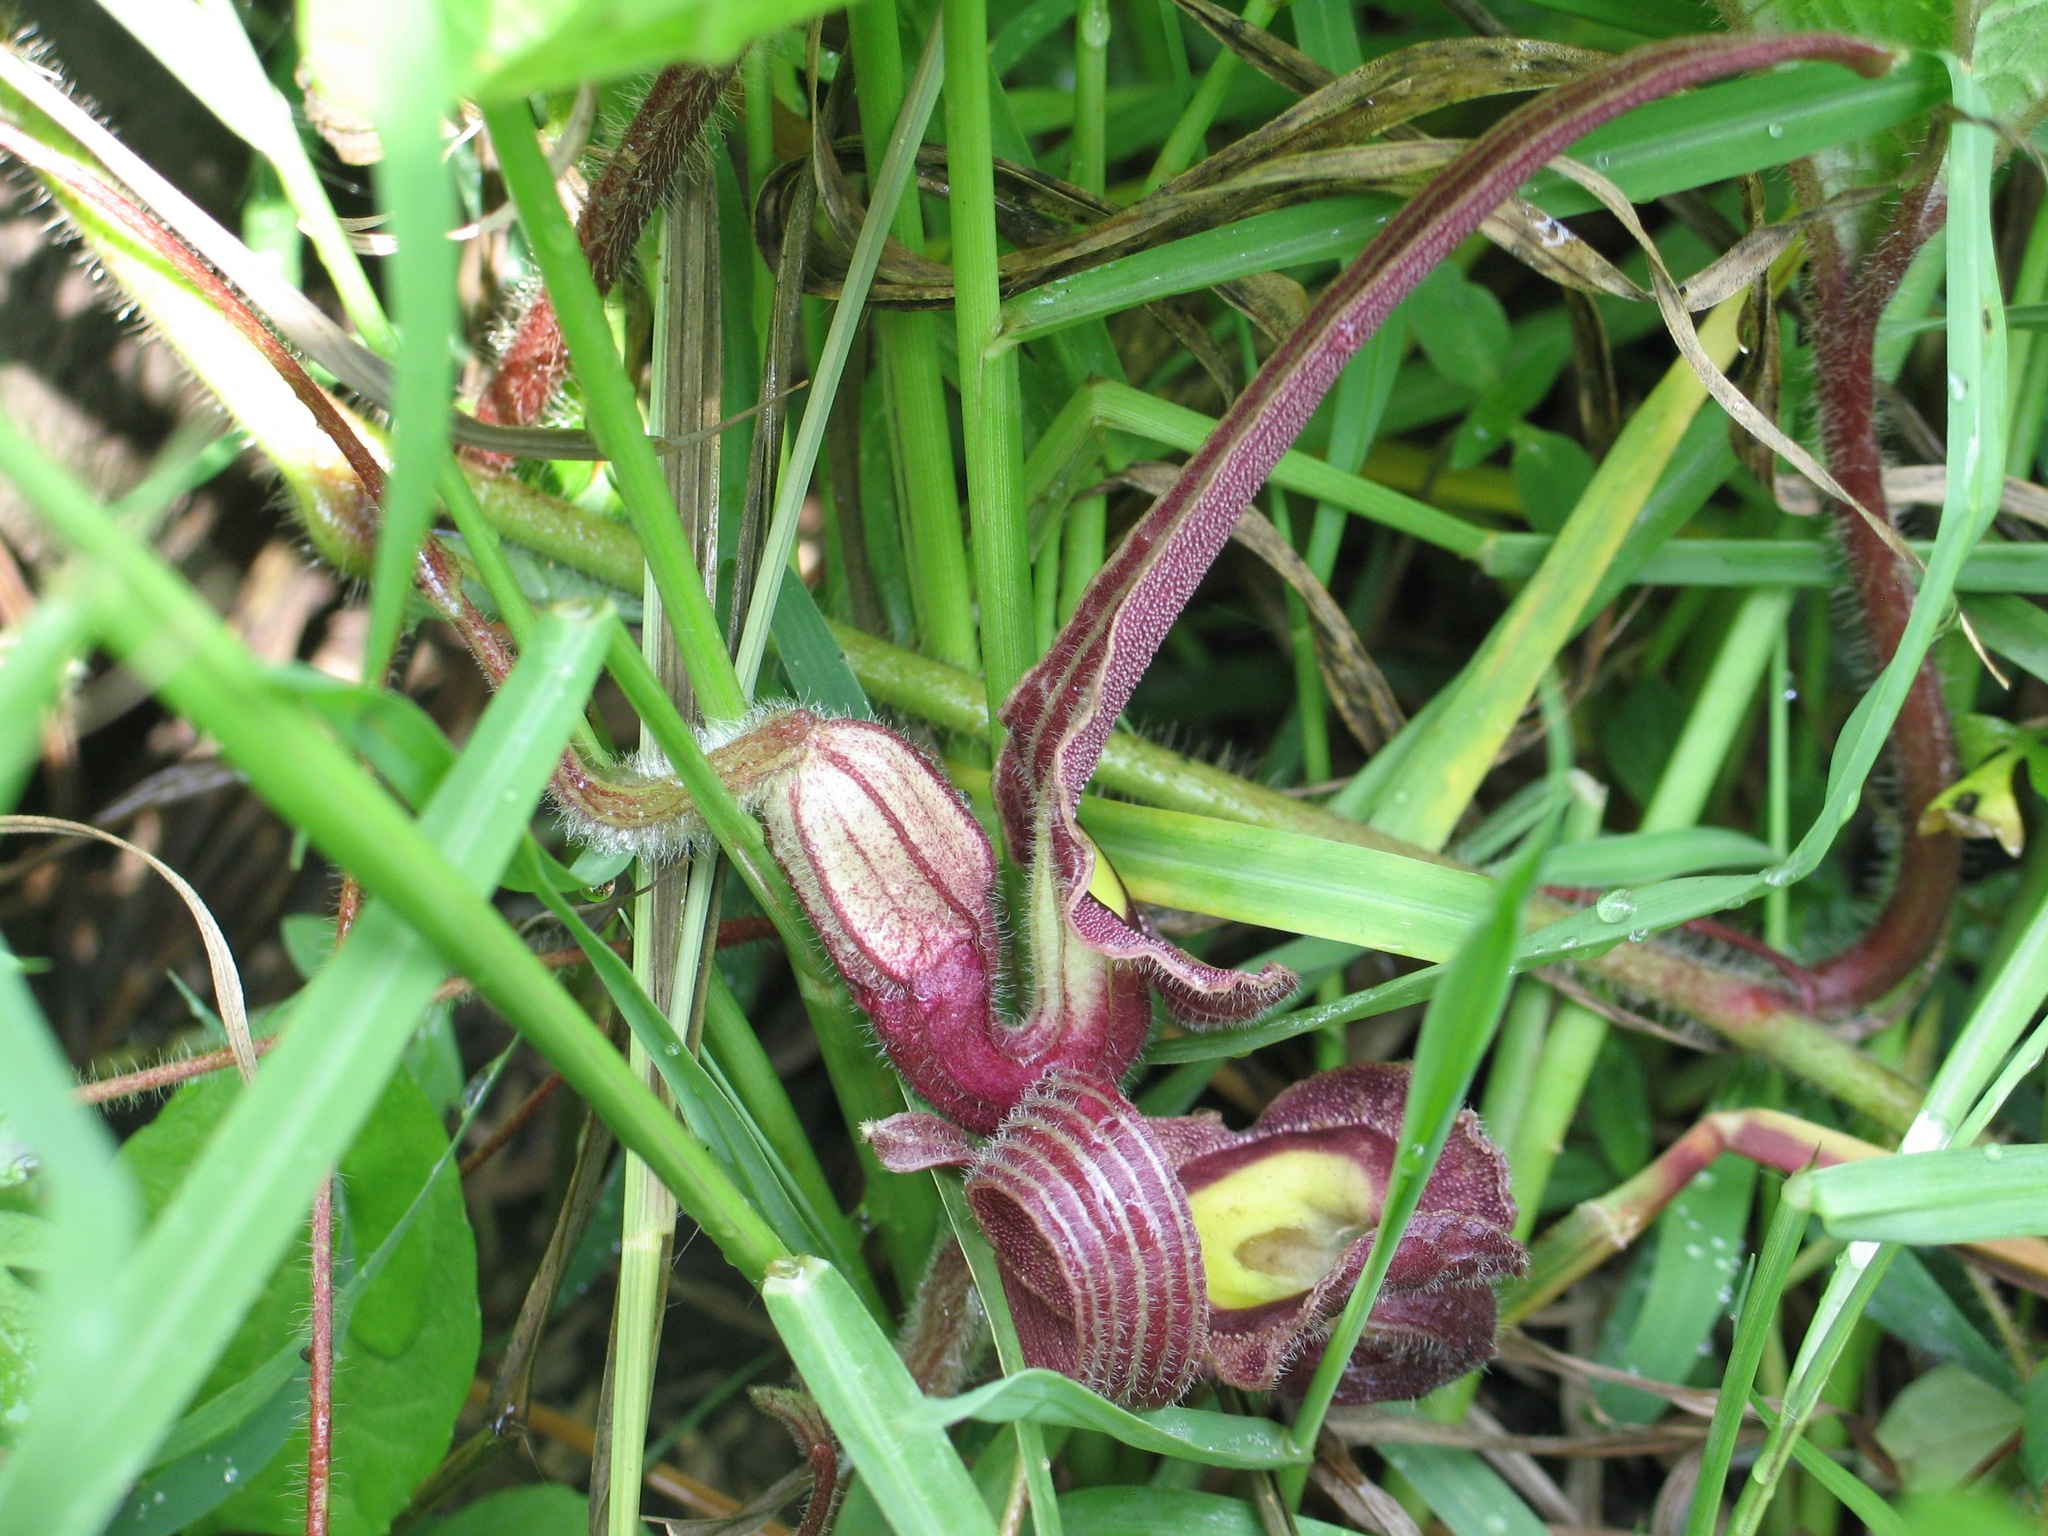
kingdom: Plantae
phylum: Tracheophyta
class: Magnoliopsida
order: Piperales
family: Aristolochiaceae
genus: Aristolochia
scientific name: Aristolochia foetida
